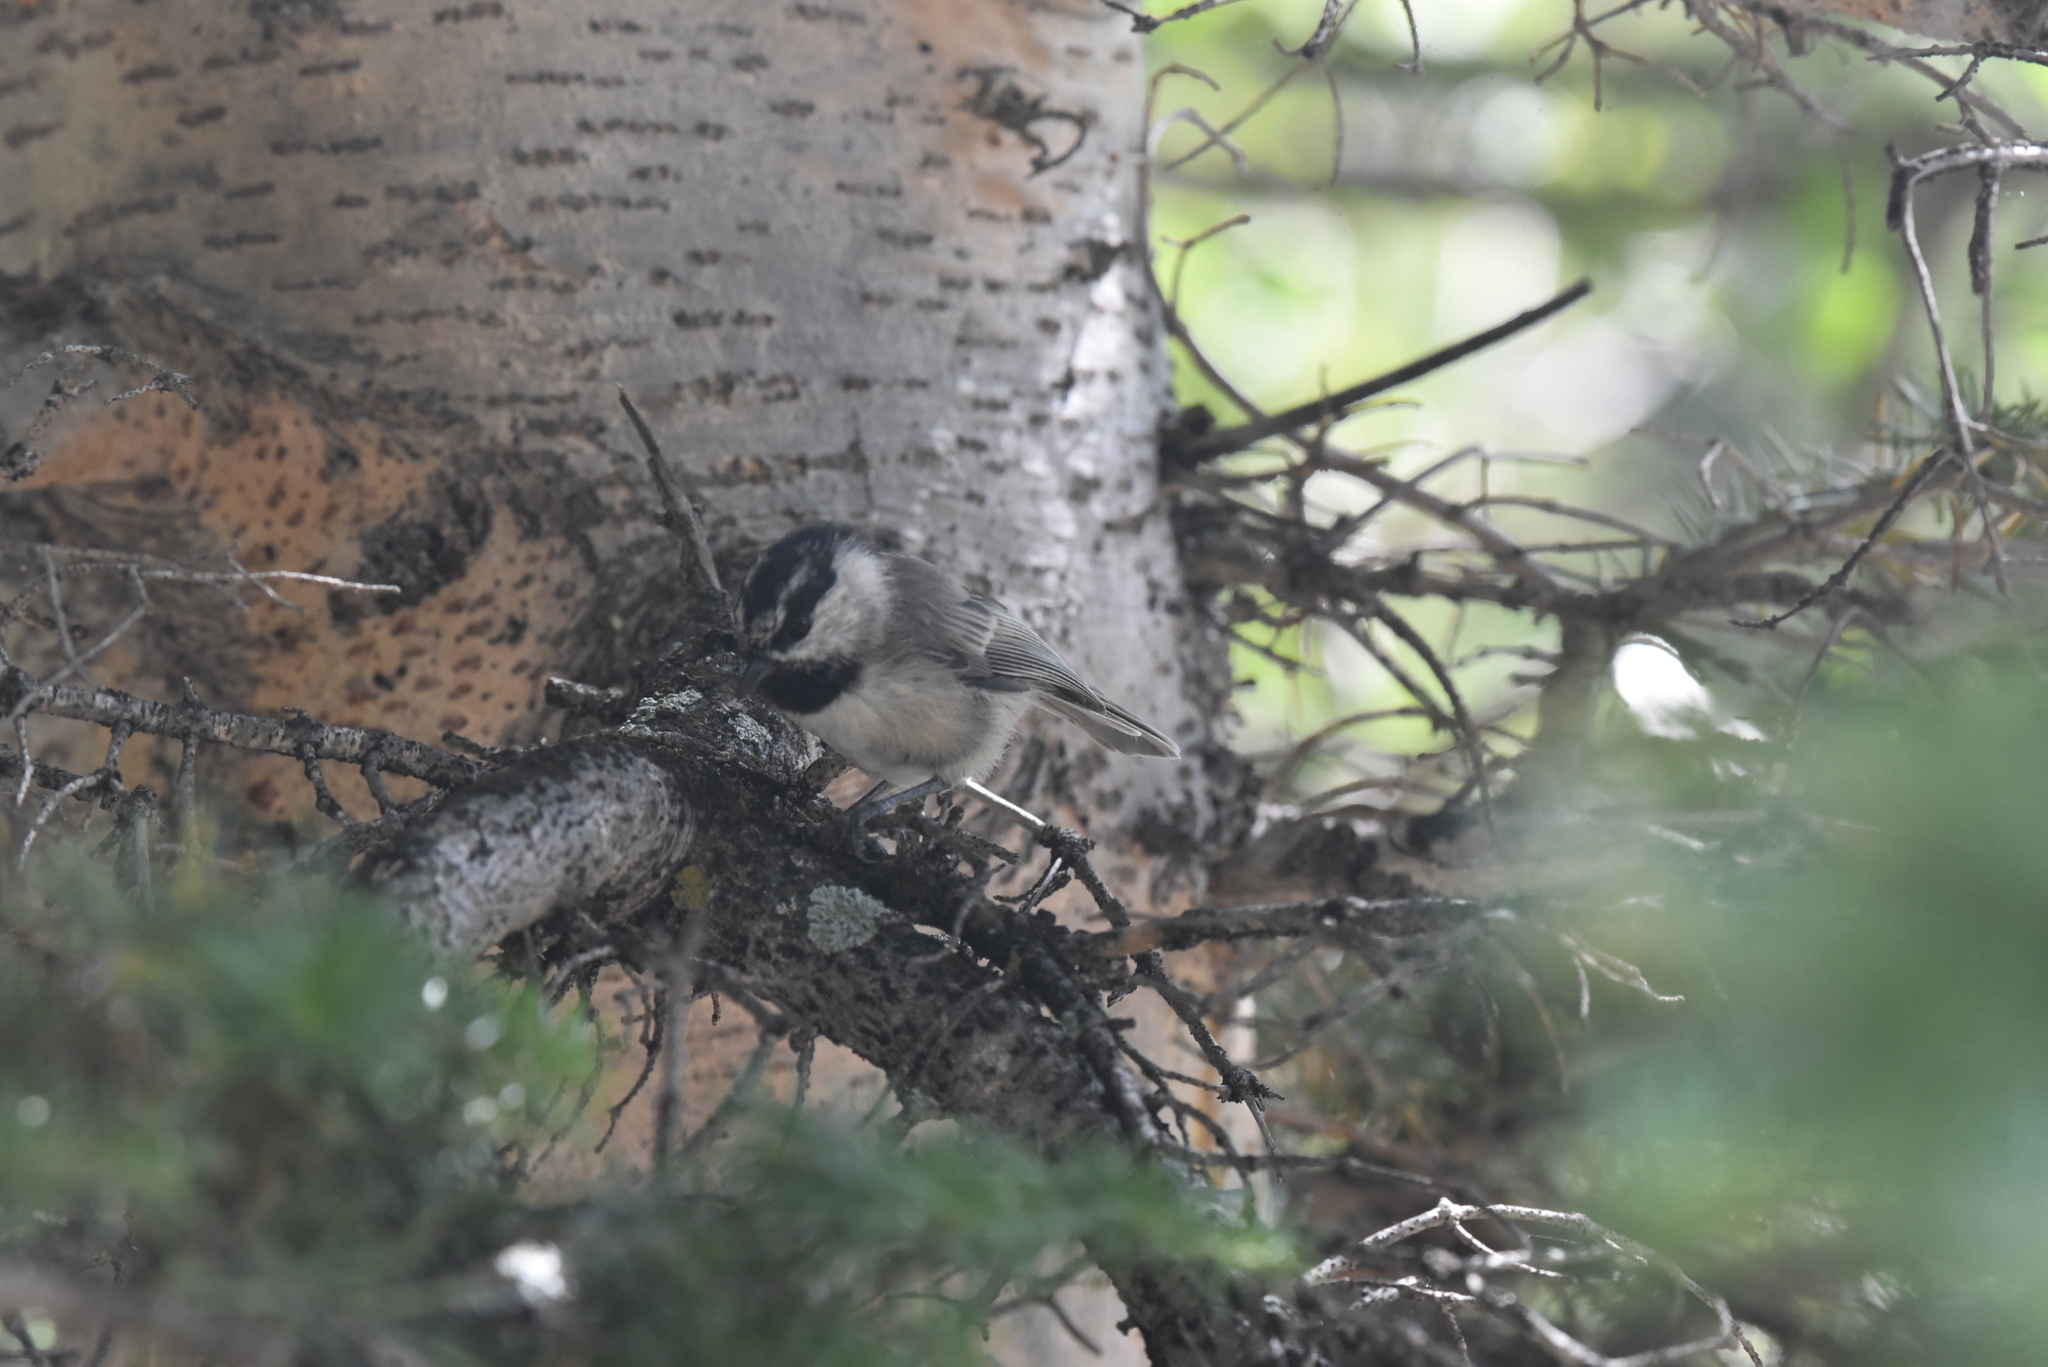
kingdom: Animalia
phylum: Chordata
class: Aves
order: Passeriformes
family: Paridae
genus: Poecile
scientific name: Poecile gambeli
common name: Mountain chickadee
